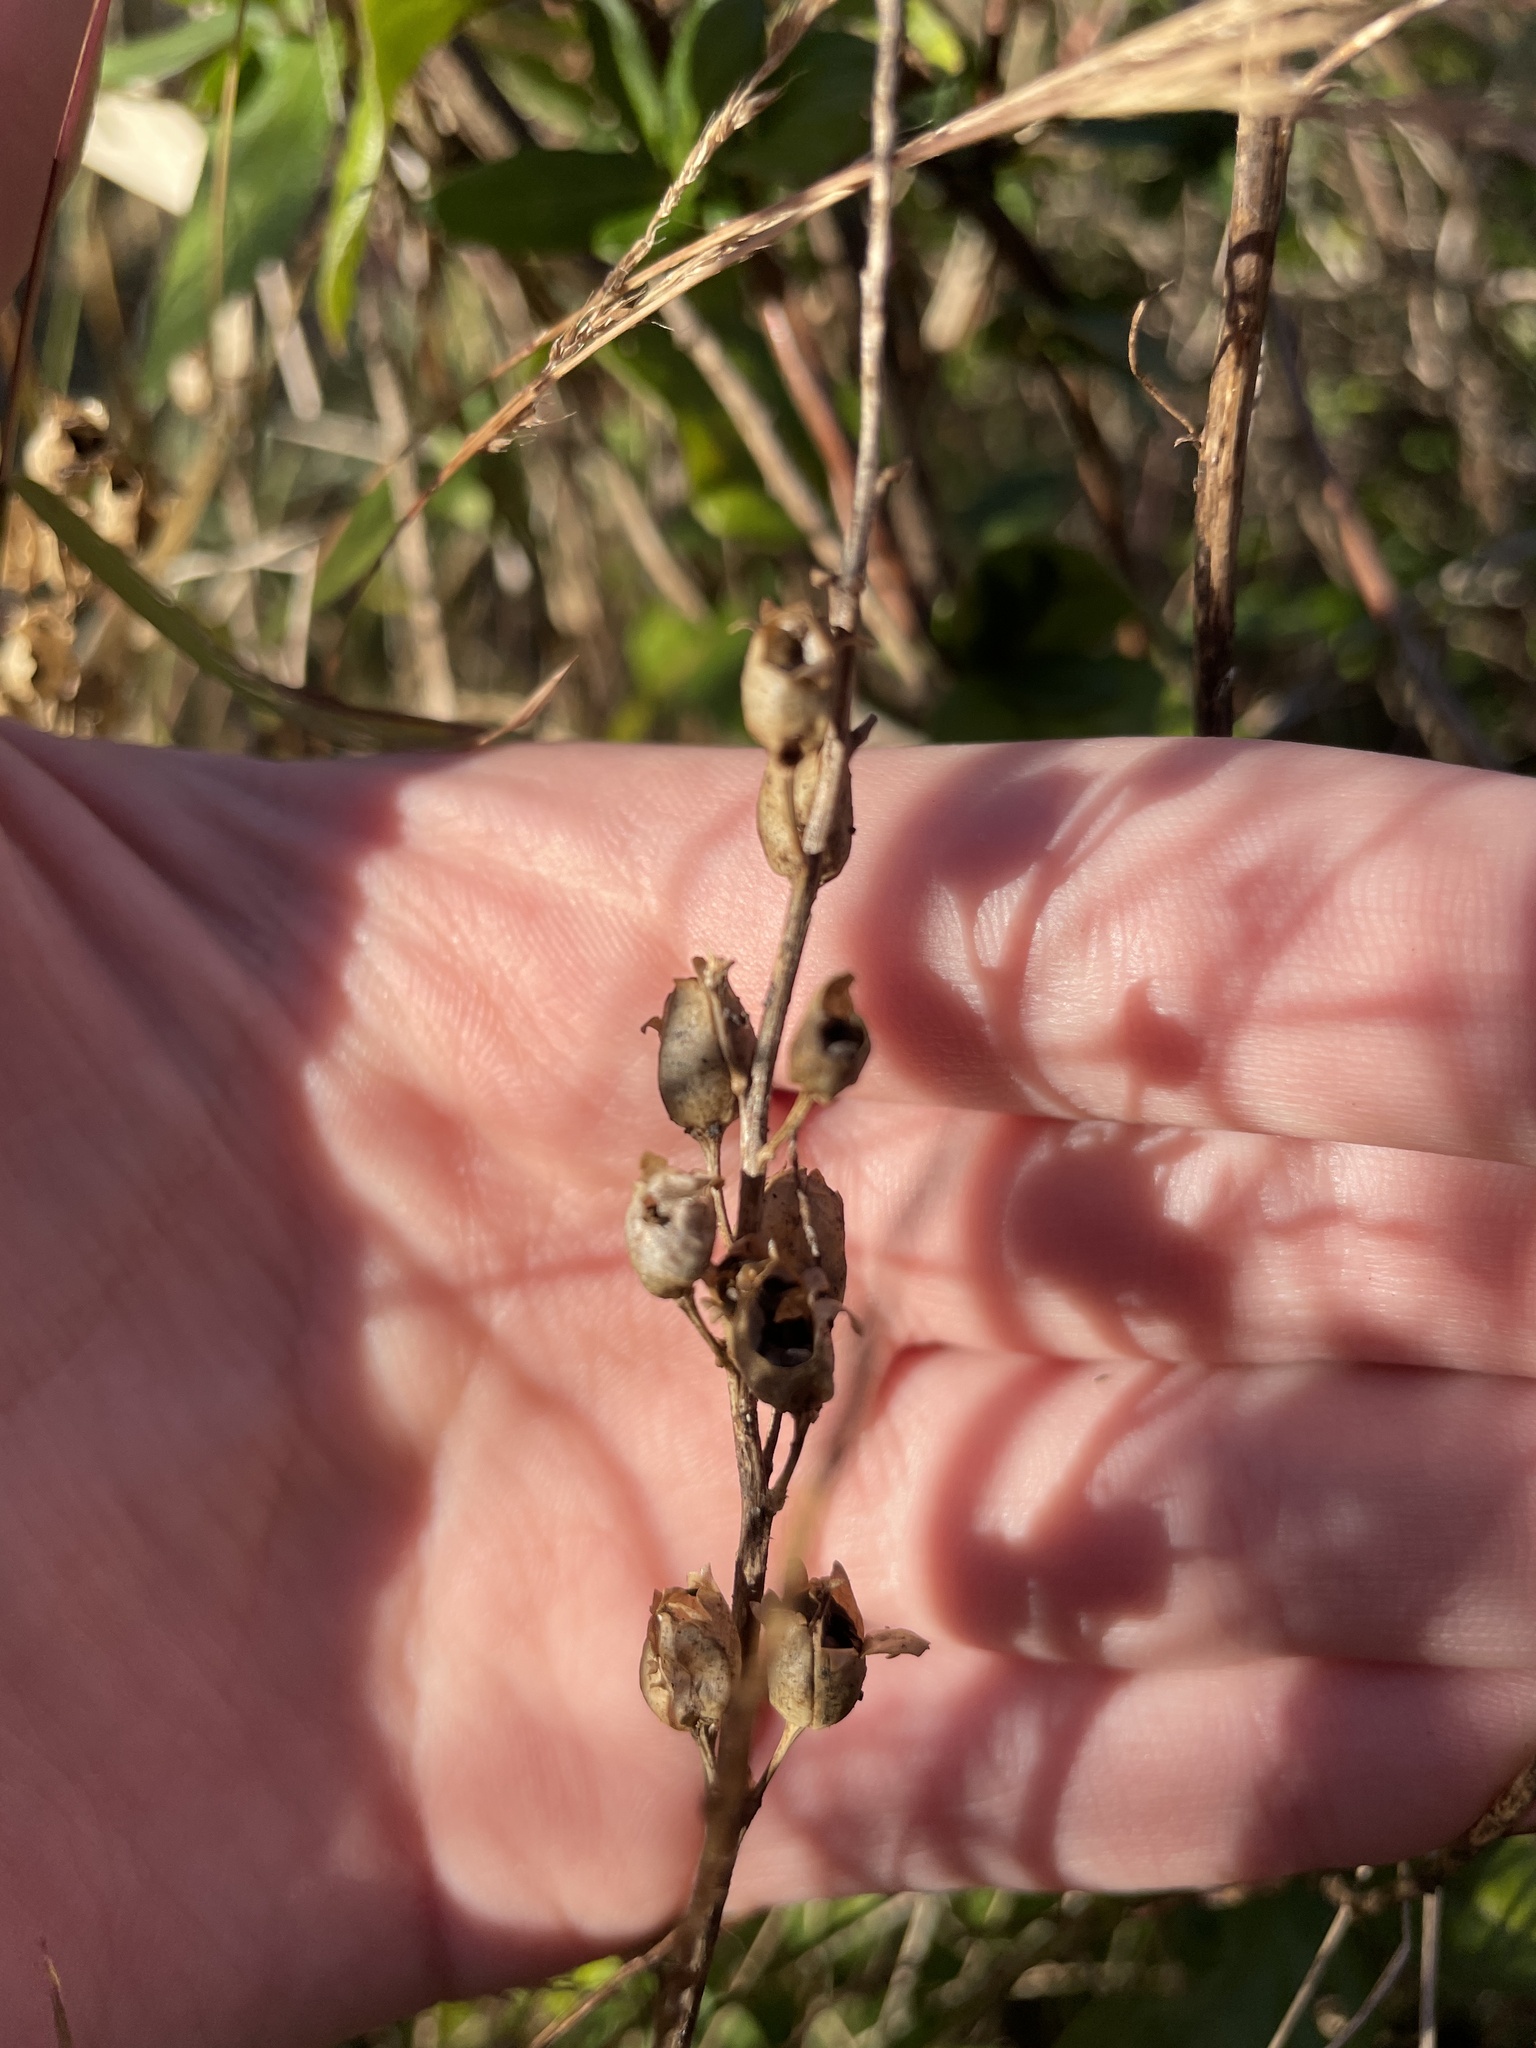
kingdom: Plantae
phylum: Tracheophyta
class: Magnoliopsida
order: Lamiales
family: Plantaginaceae
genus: Linaria
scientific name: Linaria vulgaris
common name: Butter and eggs
